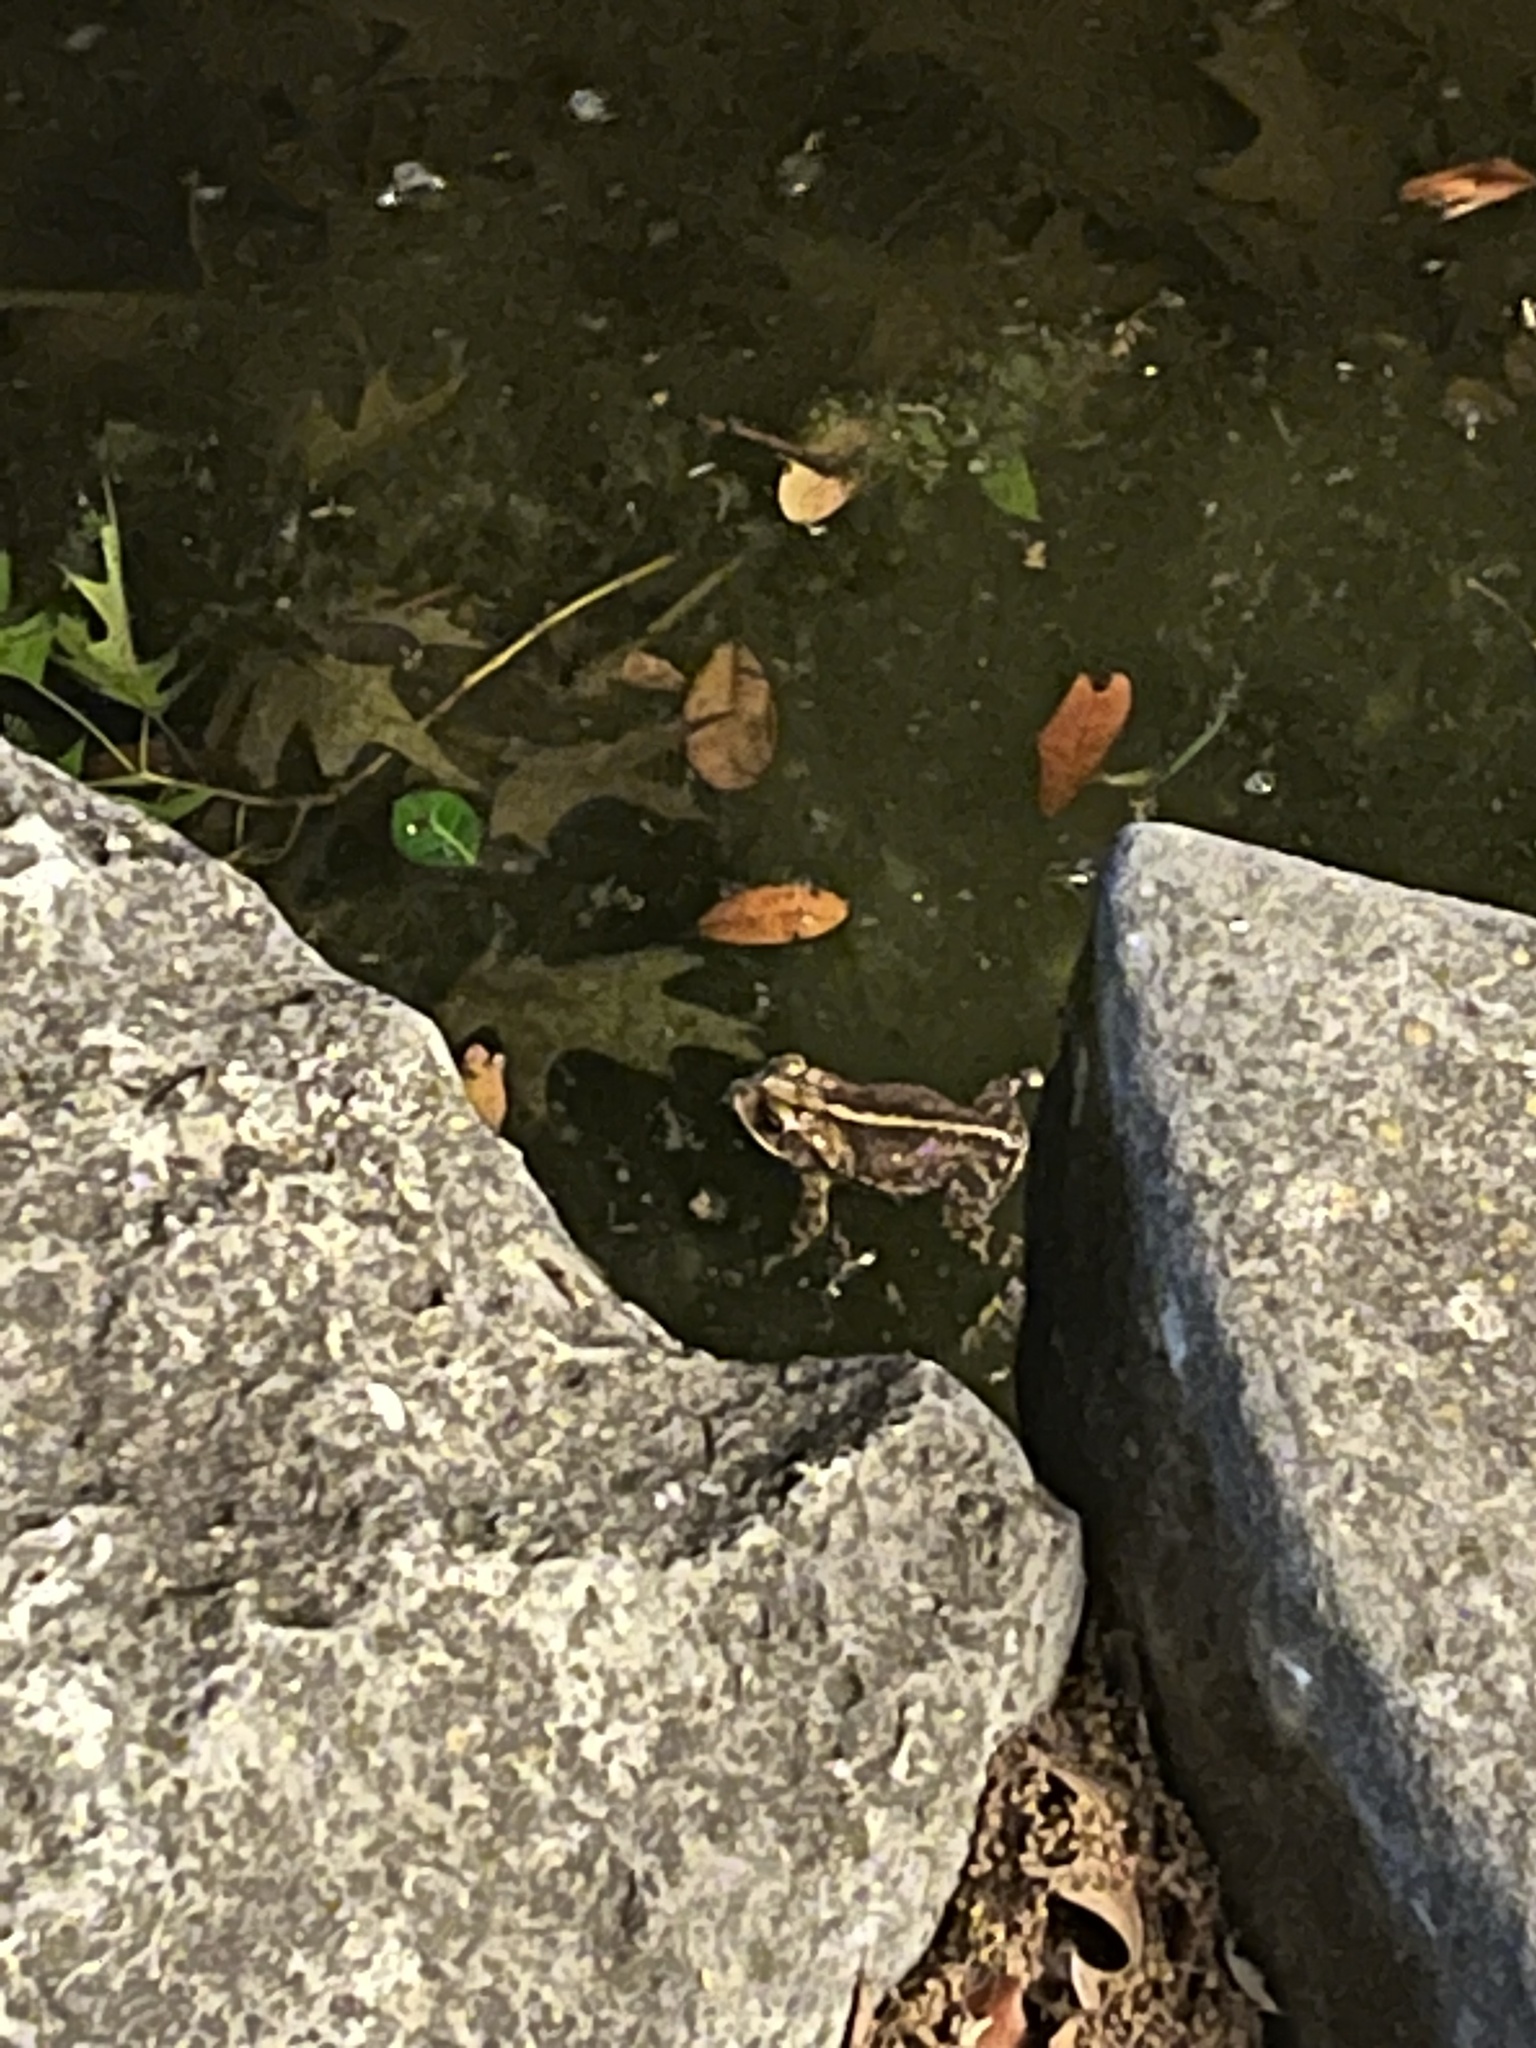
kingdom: Animalia
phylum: Chordata
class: Amphibia
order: Anura
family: Bufonidae
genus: Incilius
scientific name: Incilius nebulifer
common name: Gulf coast toad
